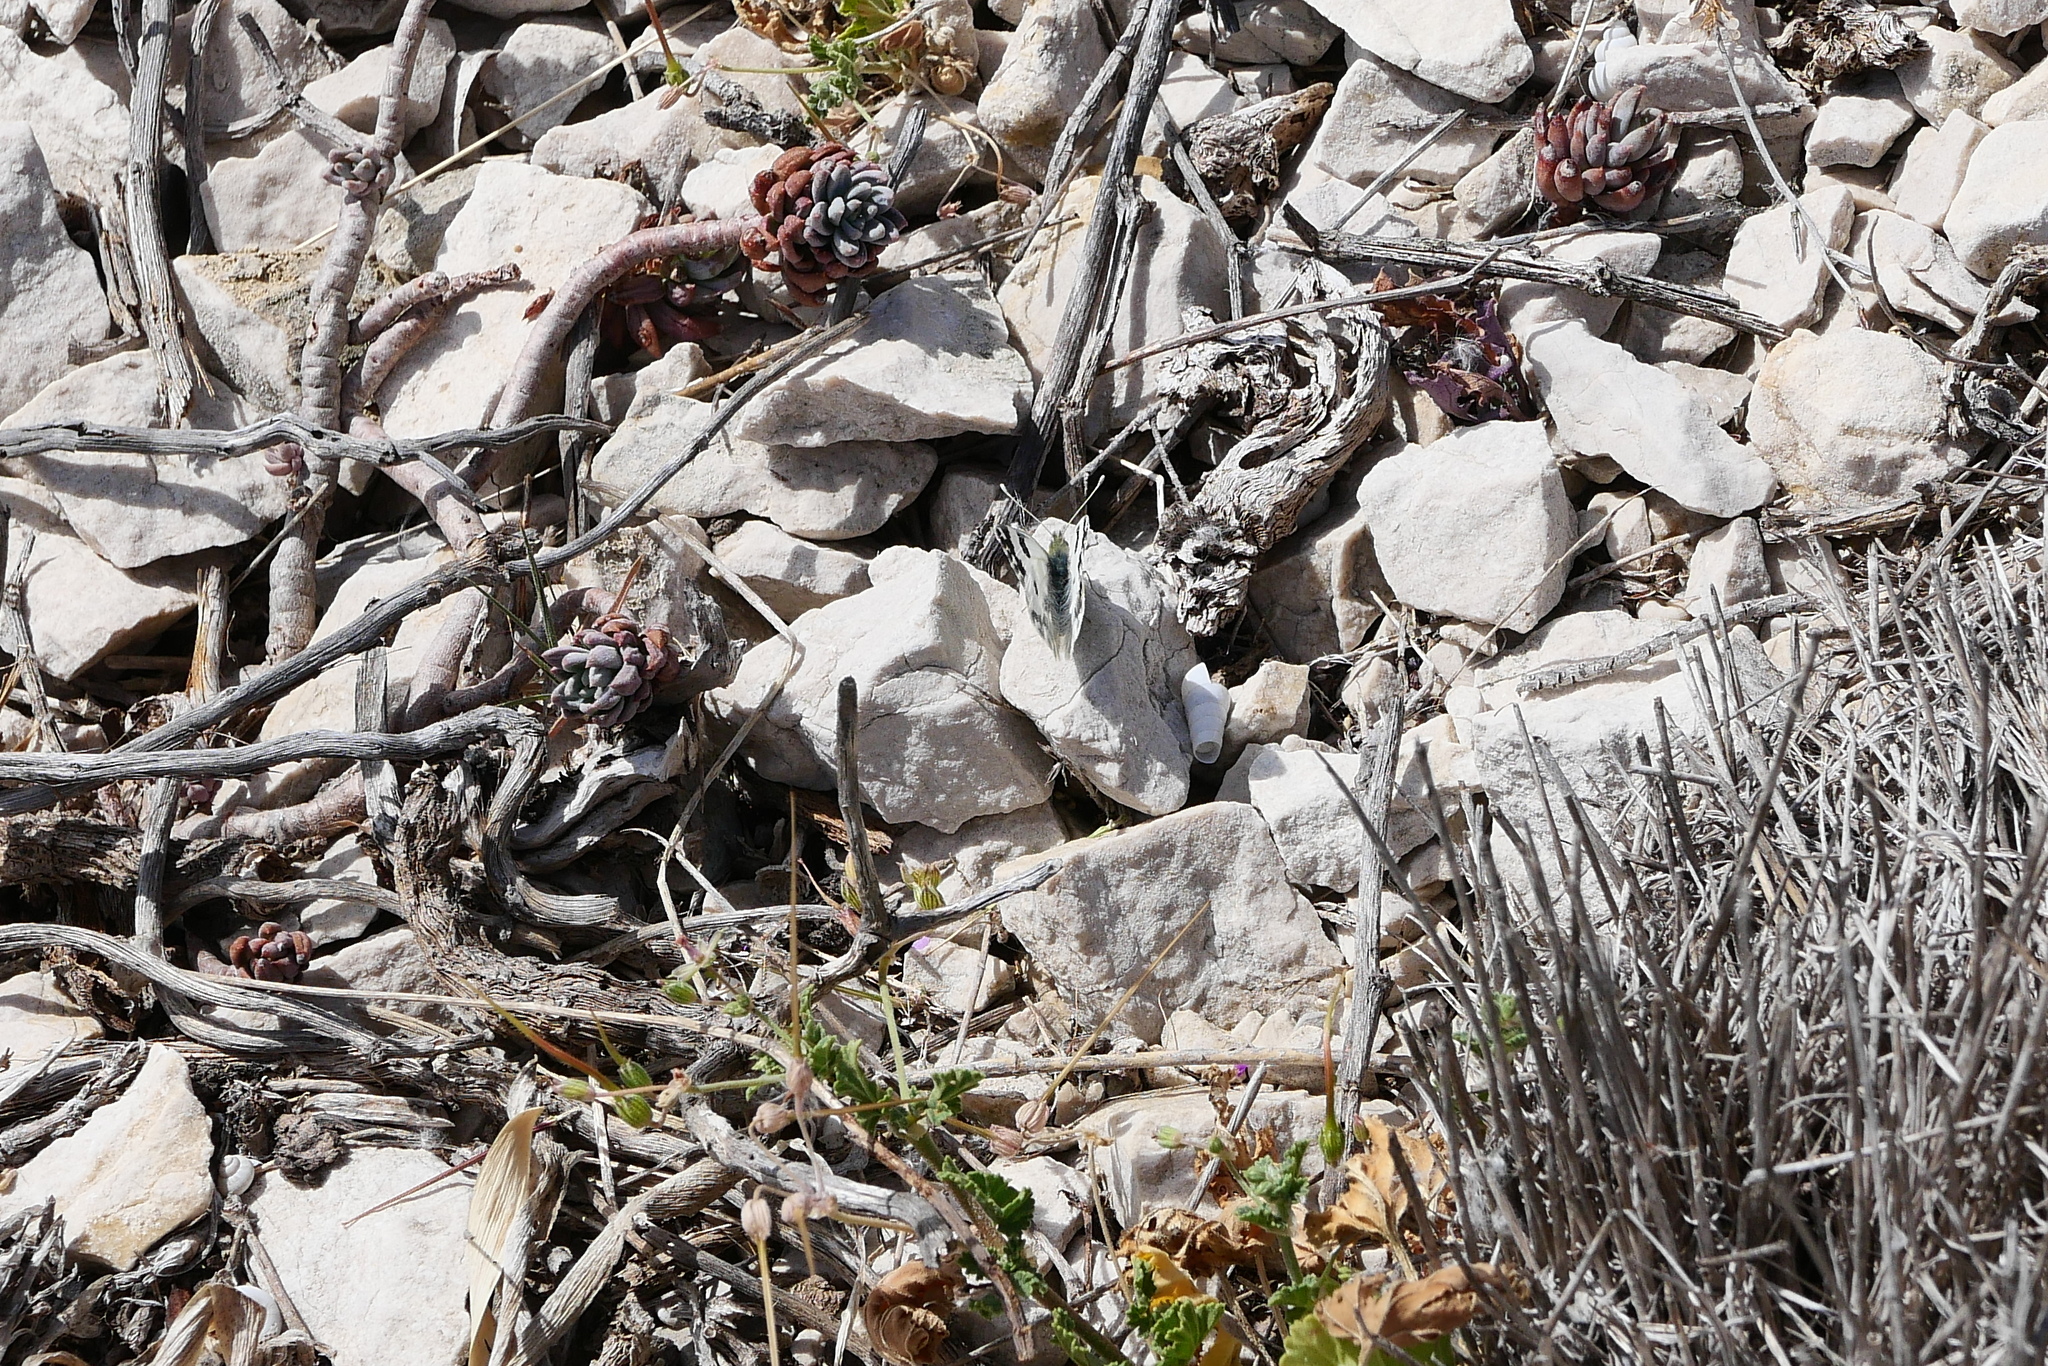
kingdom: Animalia
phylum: Arthropoda
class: Insecta
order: Lepidoptera
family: Pieridae
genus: Pontia
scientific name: Pontia daplidice
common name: Bath white
